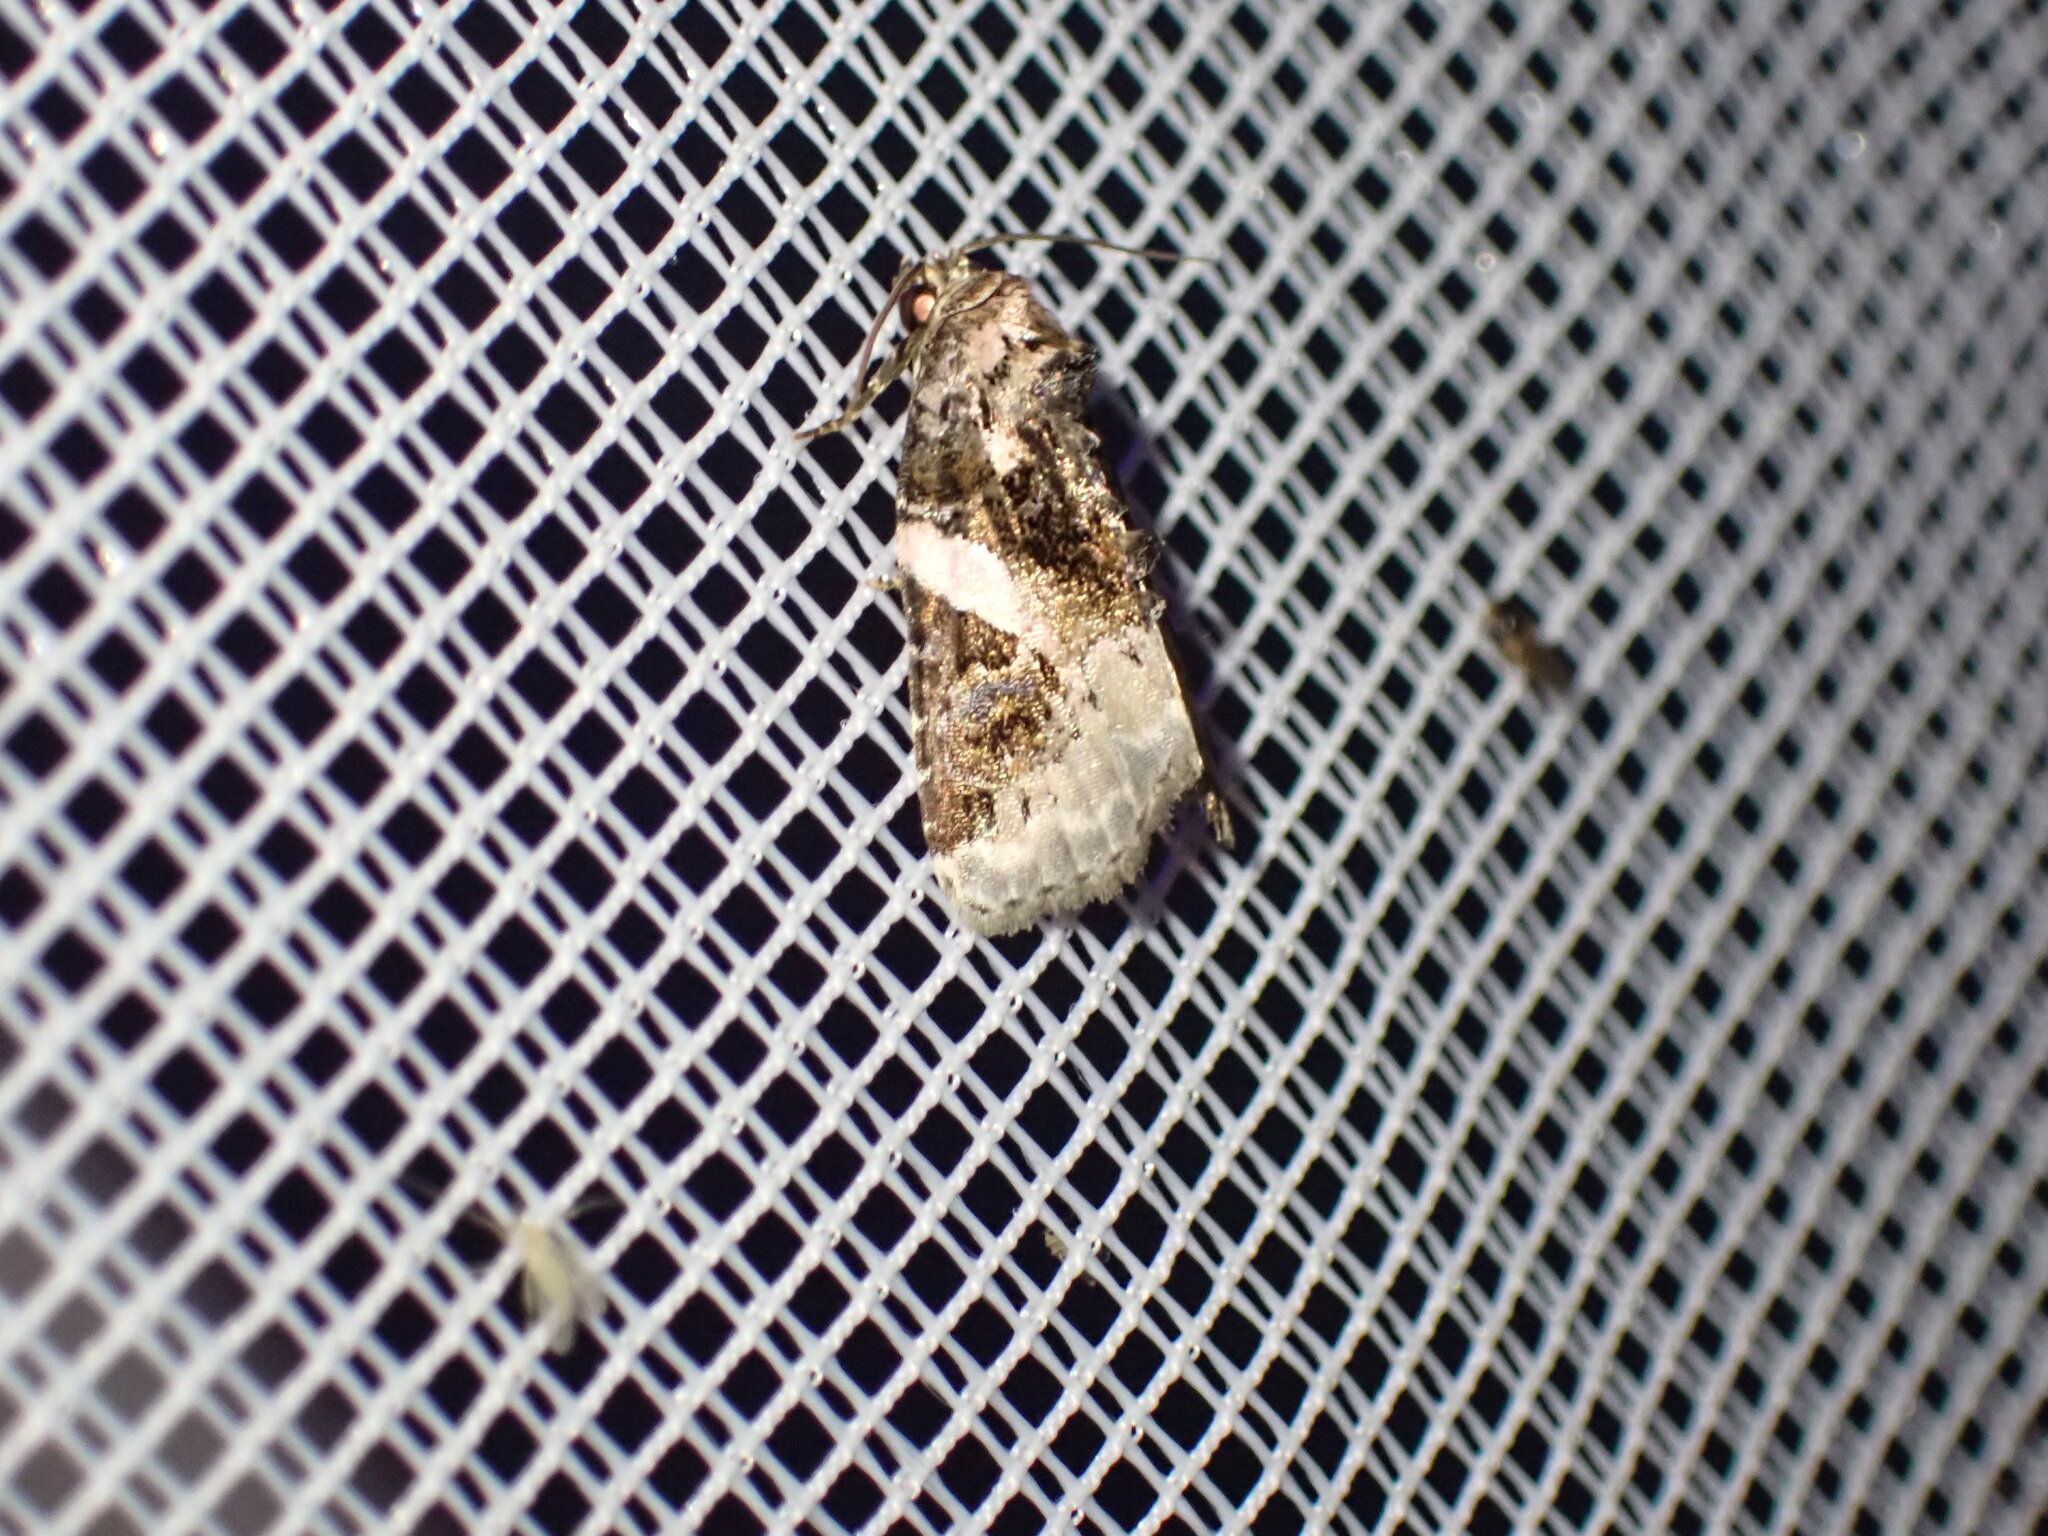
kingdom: Animalia
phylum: Arthropoda
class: Insecta
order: Lepidoptera
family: Noctuidae
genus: Pseudeustrotia
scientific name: Pseudeustrotia carneola
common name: Pink-barred lithacodia moth
